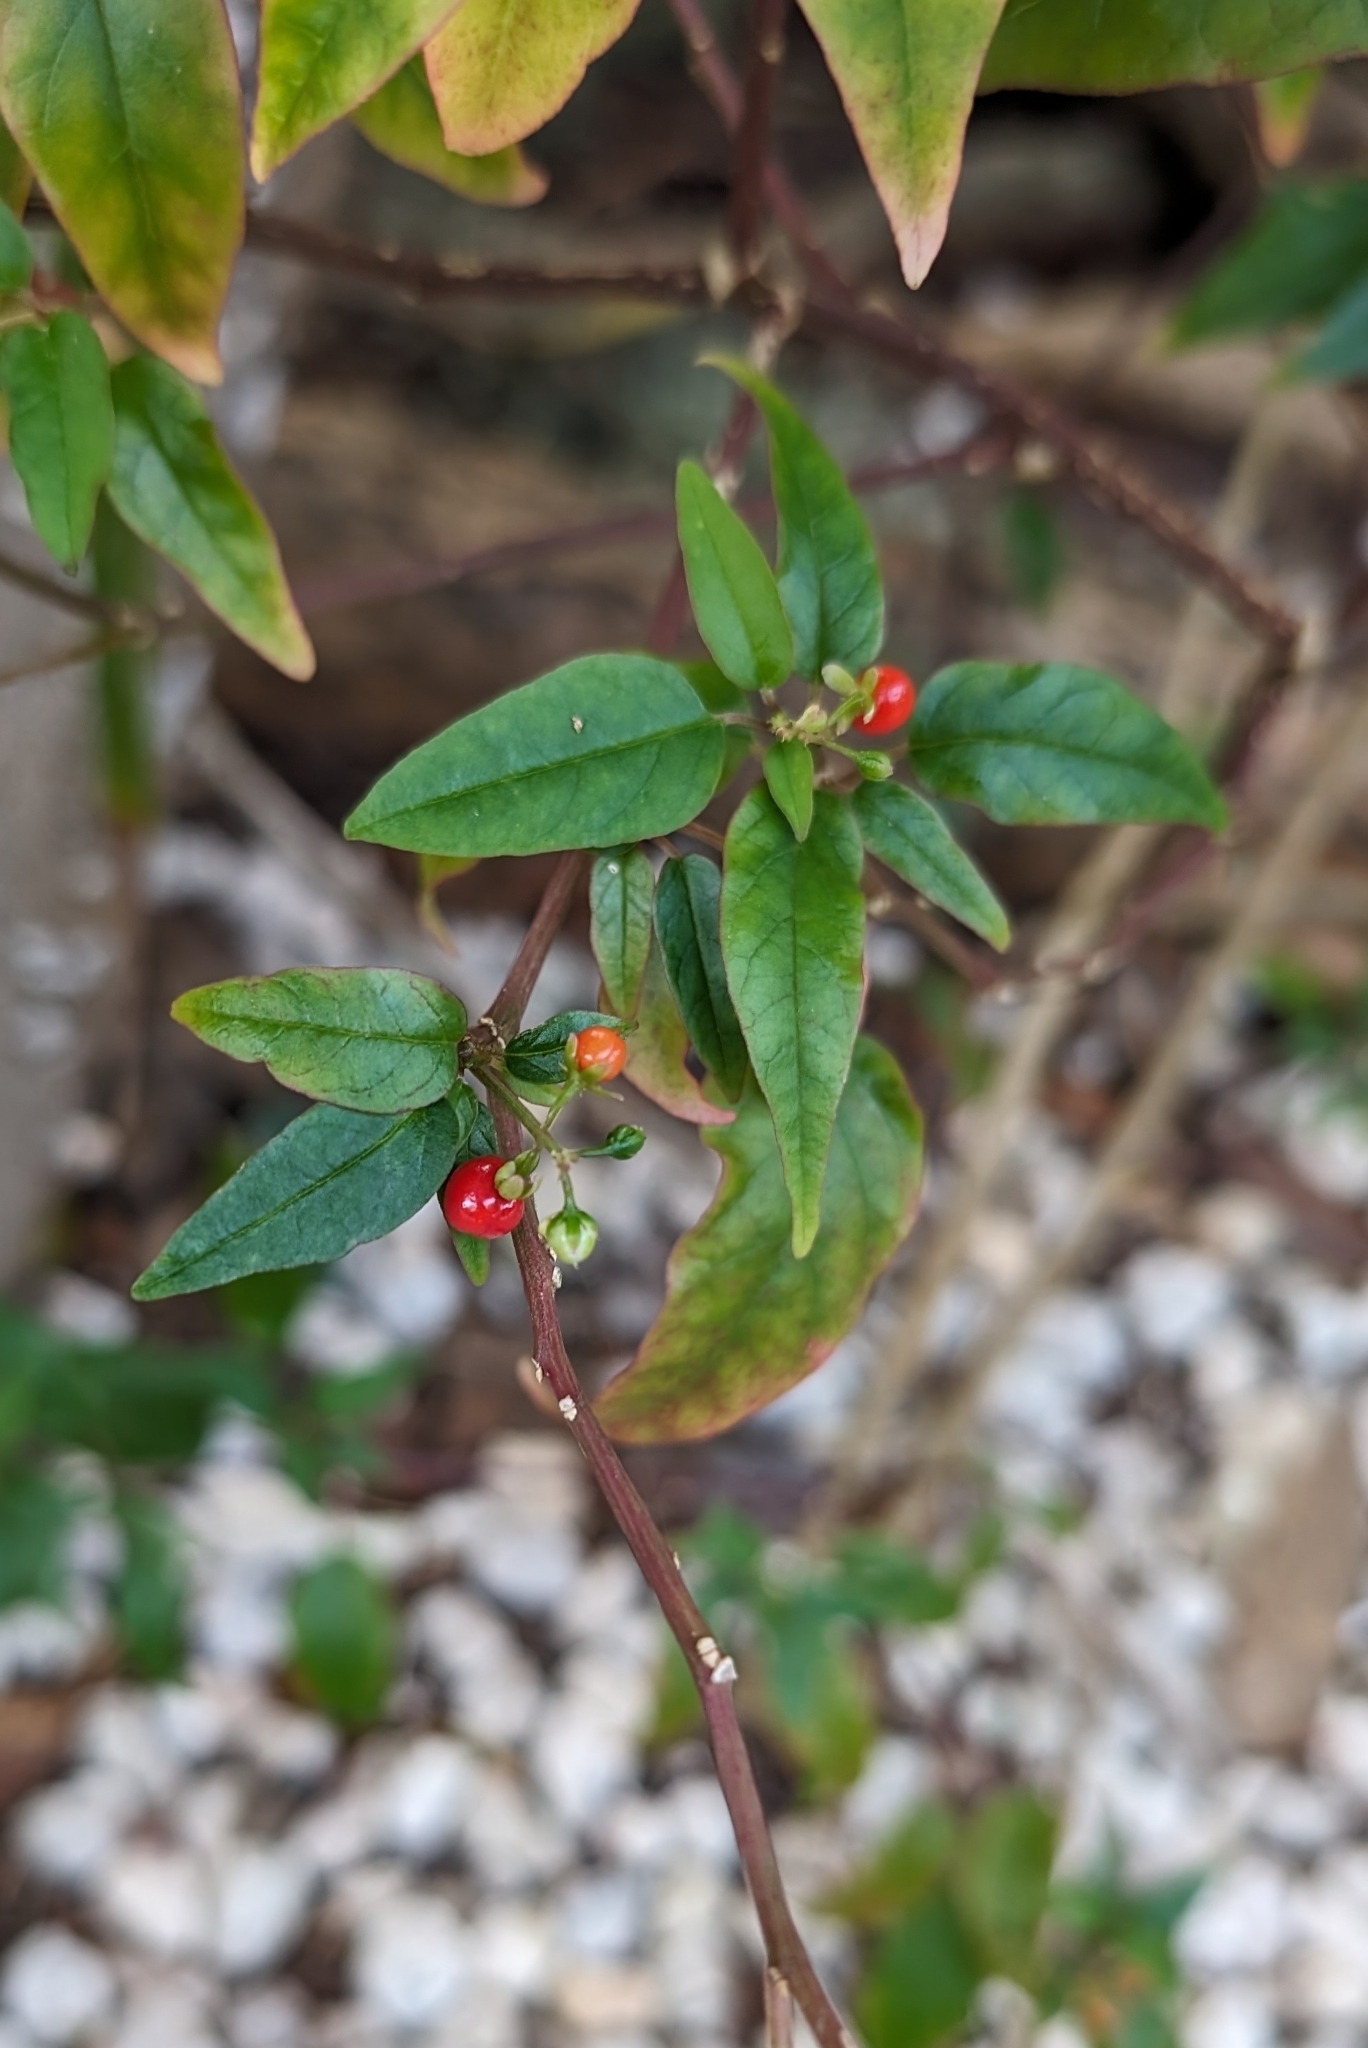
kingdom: Plantae
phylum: Tracheophyta
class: Magnoliopsida
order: Caryophyllales
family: Phytolaccaceae
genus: Rivina
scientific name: Rivina humilis
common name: Rougeplant
